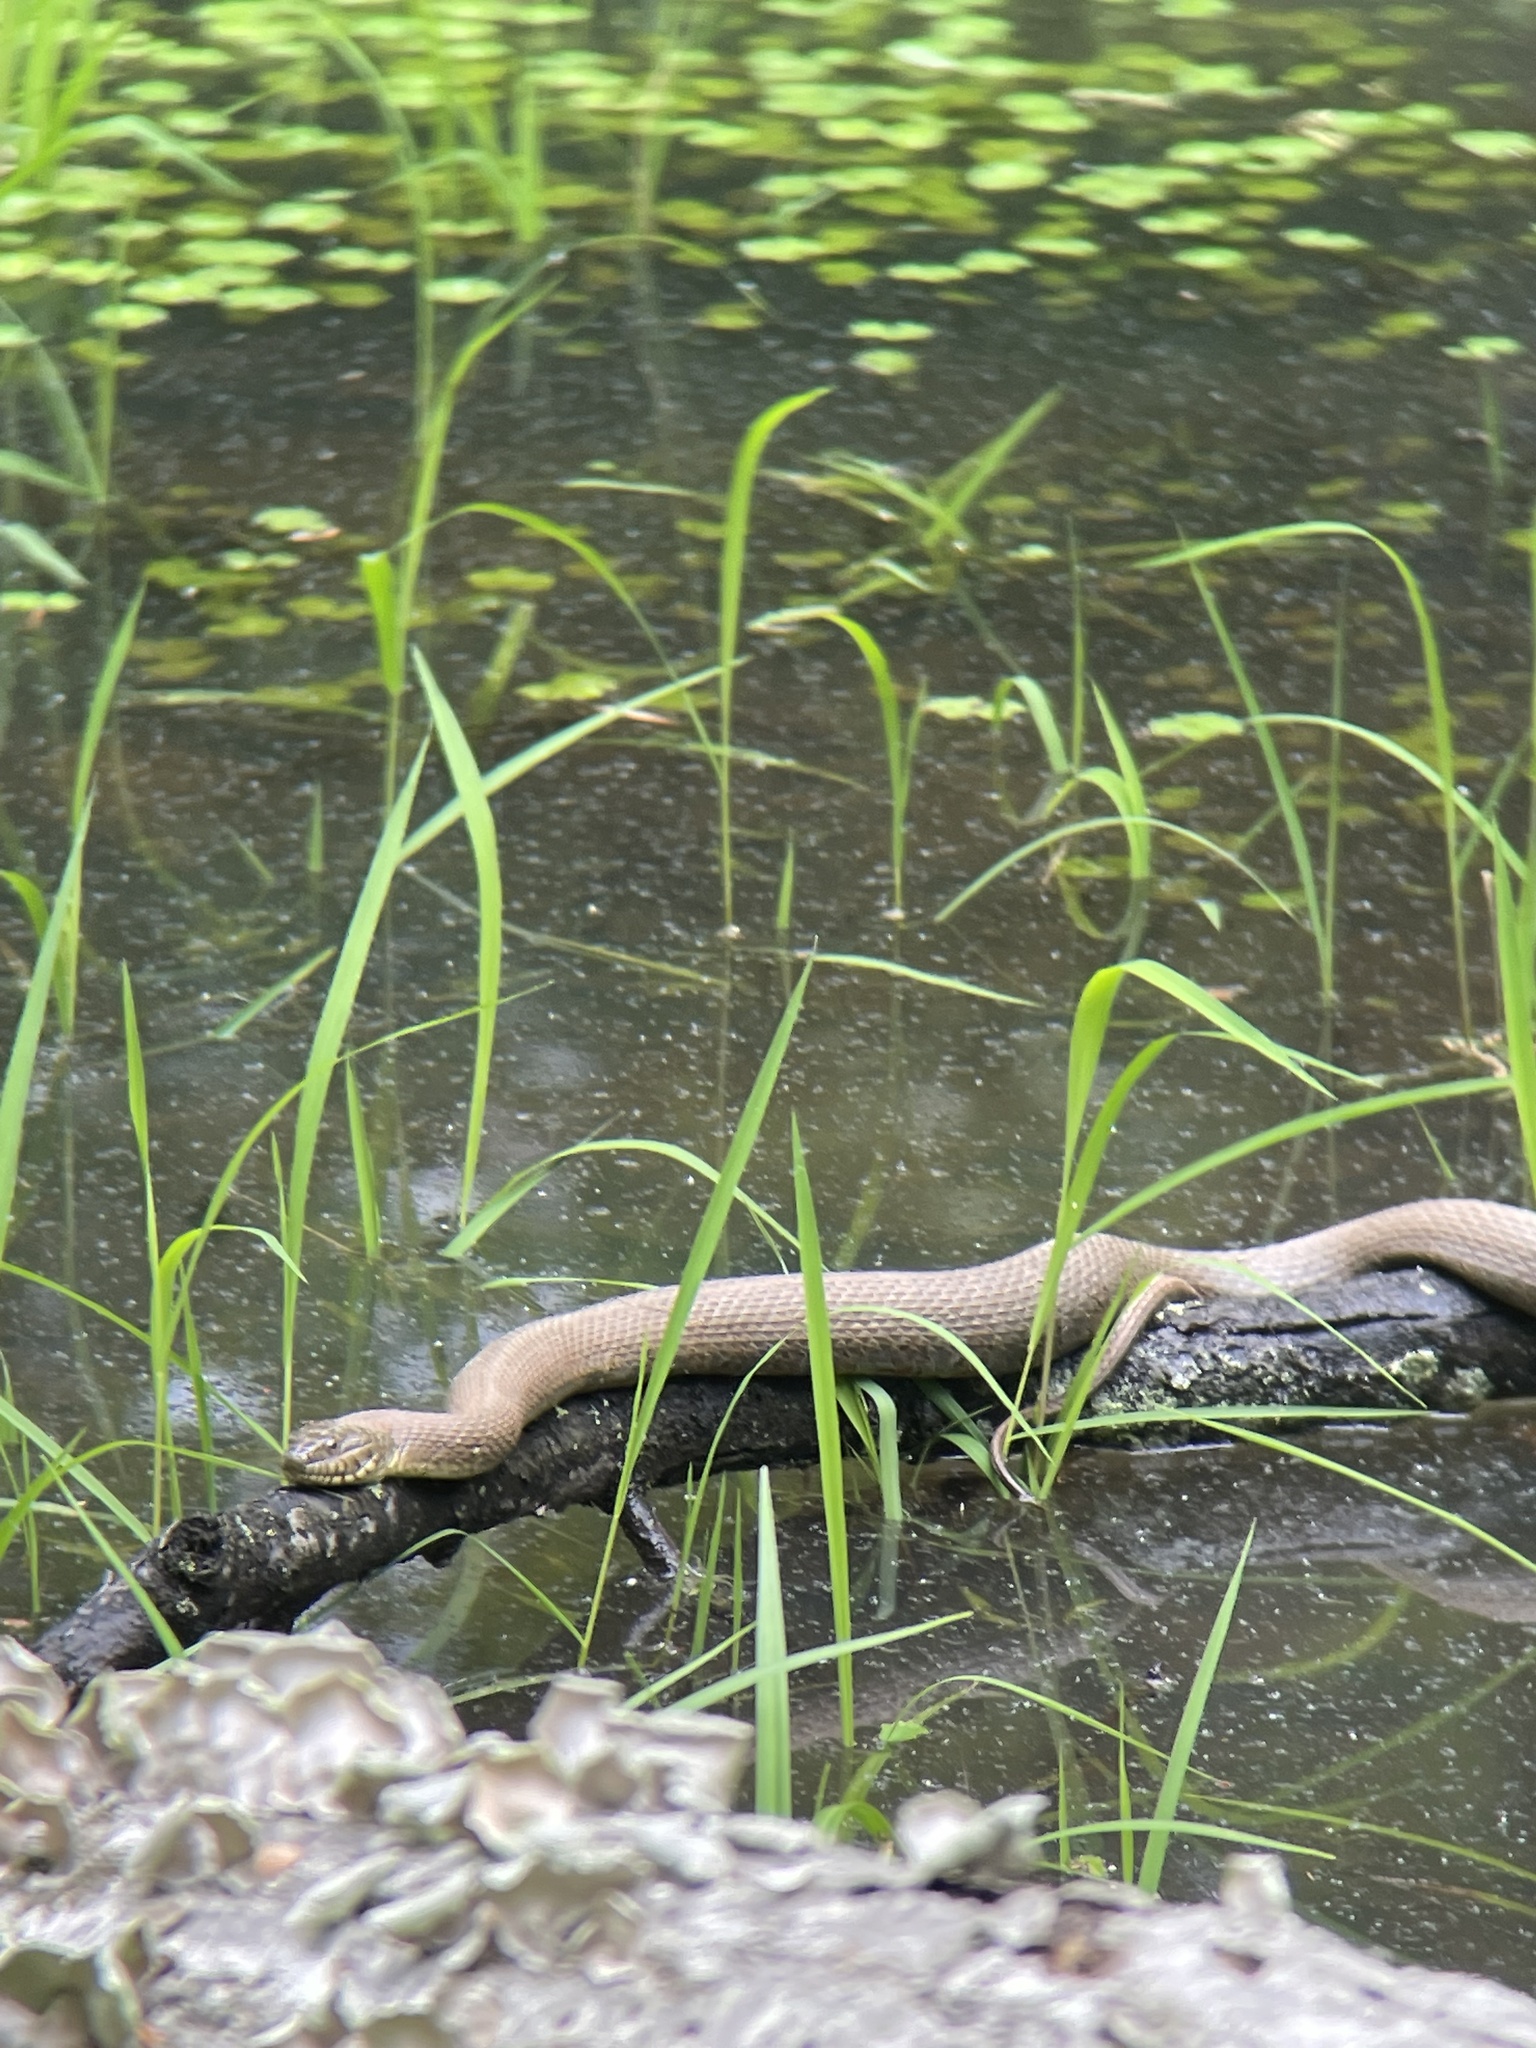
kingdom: Animalia
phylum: Chordata
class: Squamata
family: Colubridae
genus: Nerodia
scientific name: Nerodia sipedon
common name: Northern water snake
